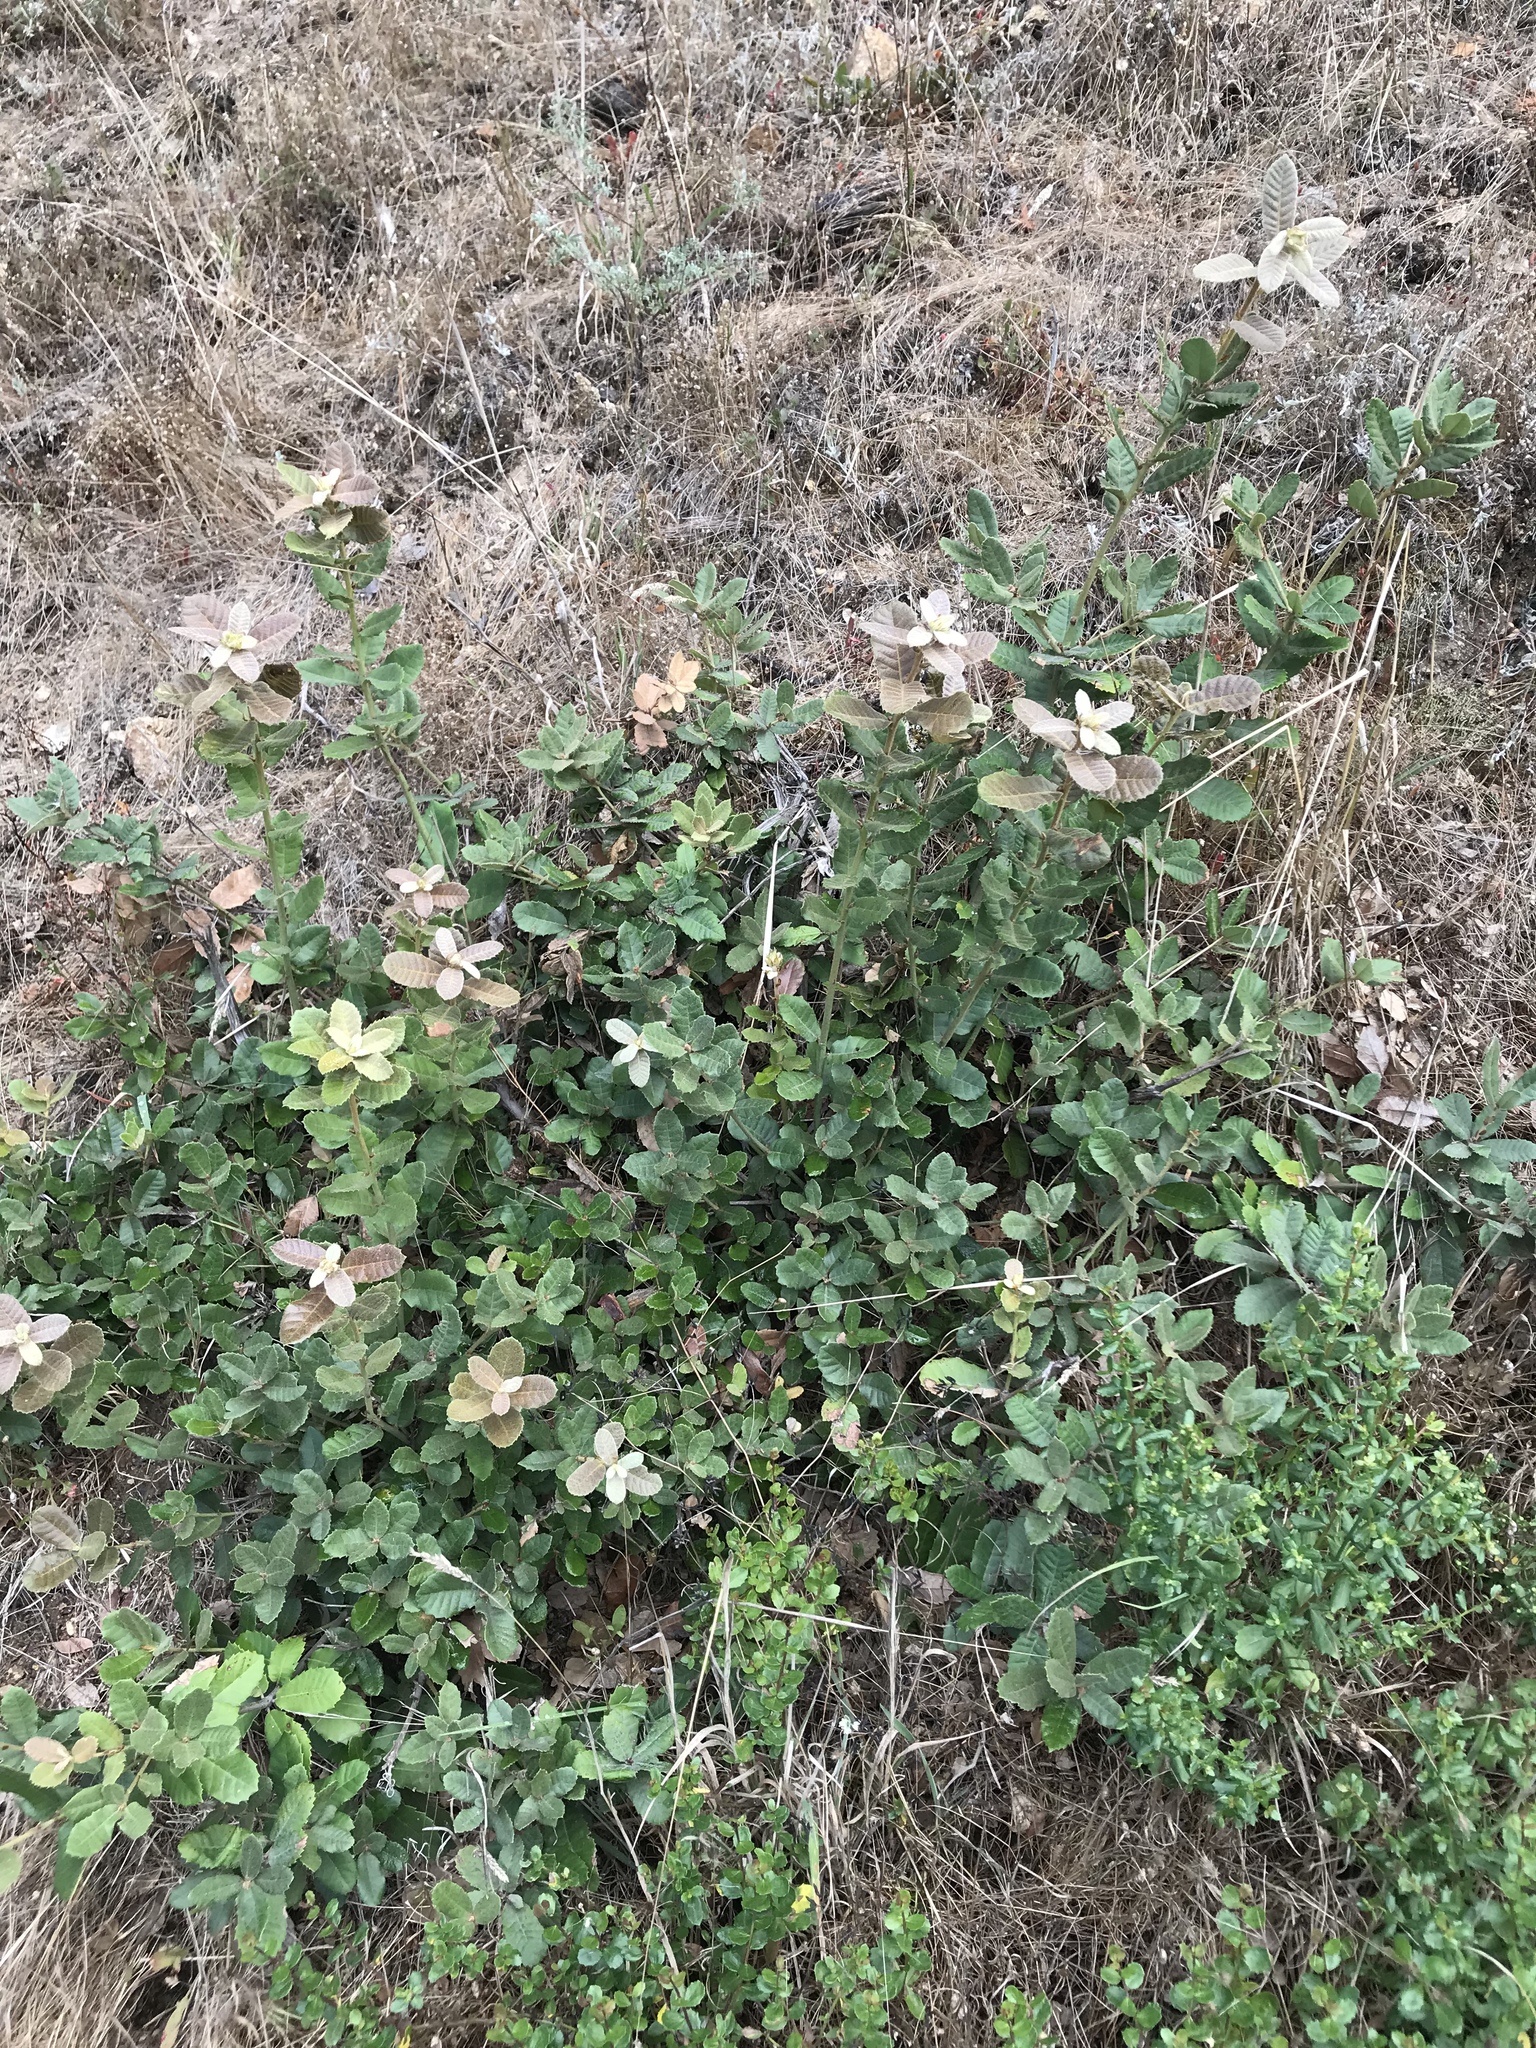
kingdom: Plantae
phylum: Tracheophyta
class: Magnoliopsida
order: Fagales
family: Fagaceae
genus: Notholithocarpus
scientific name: Notholithocarpus densiflorus
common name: Tan bark oak
